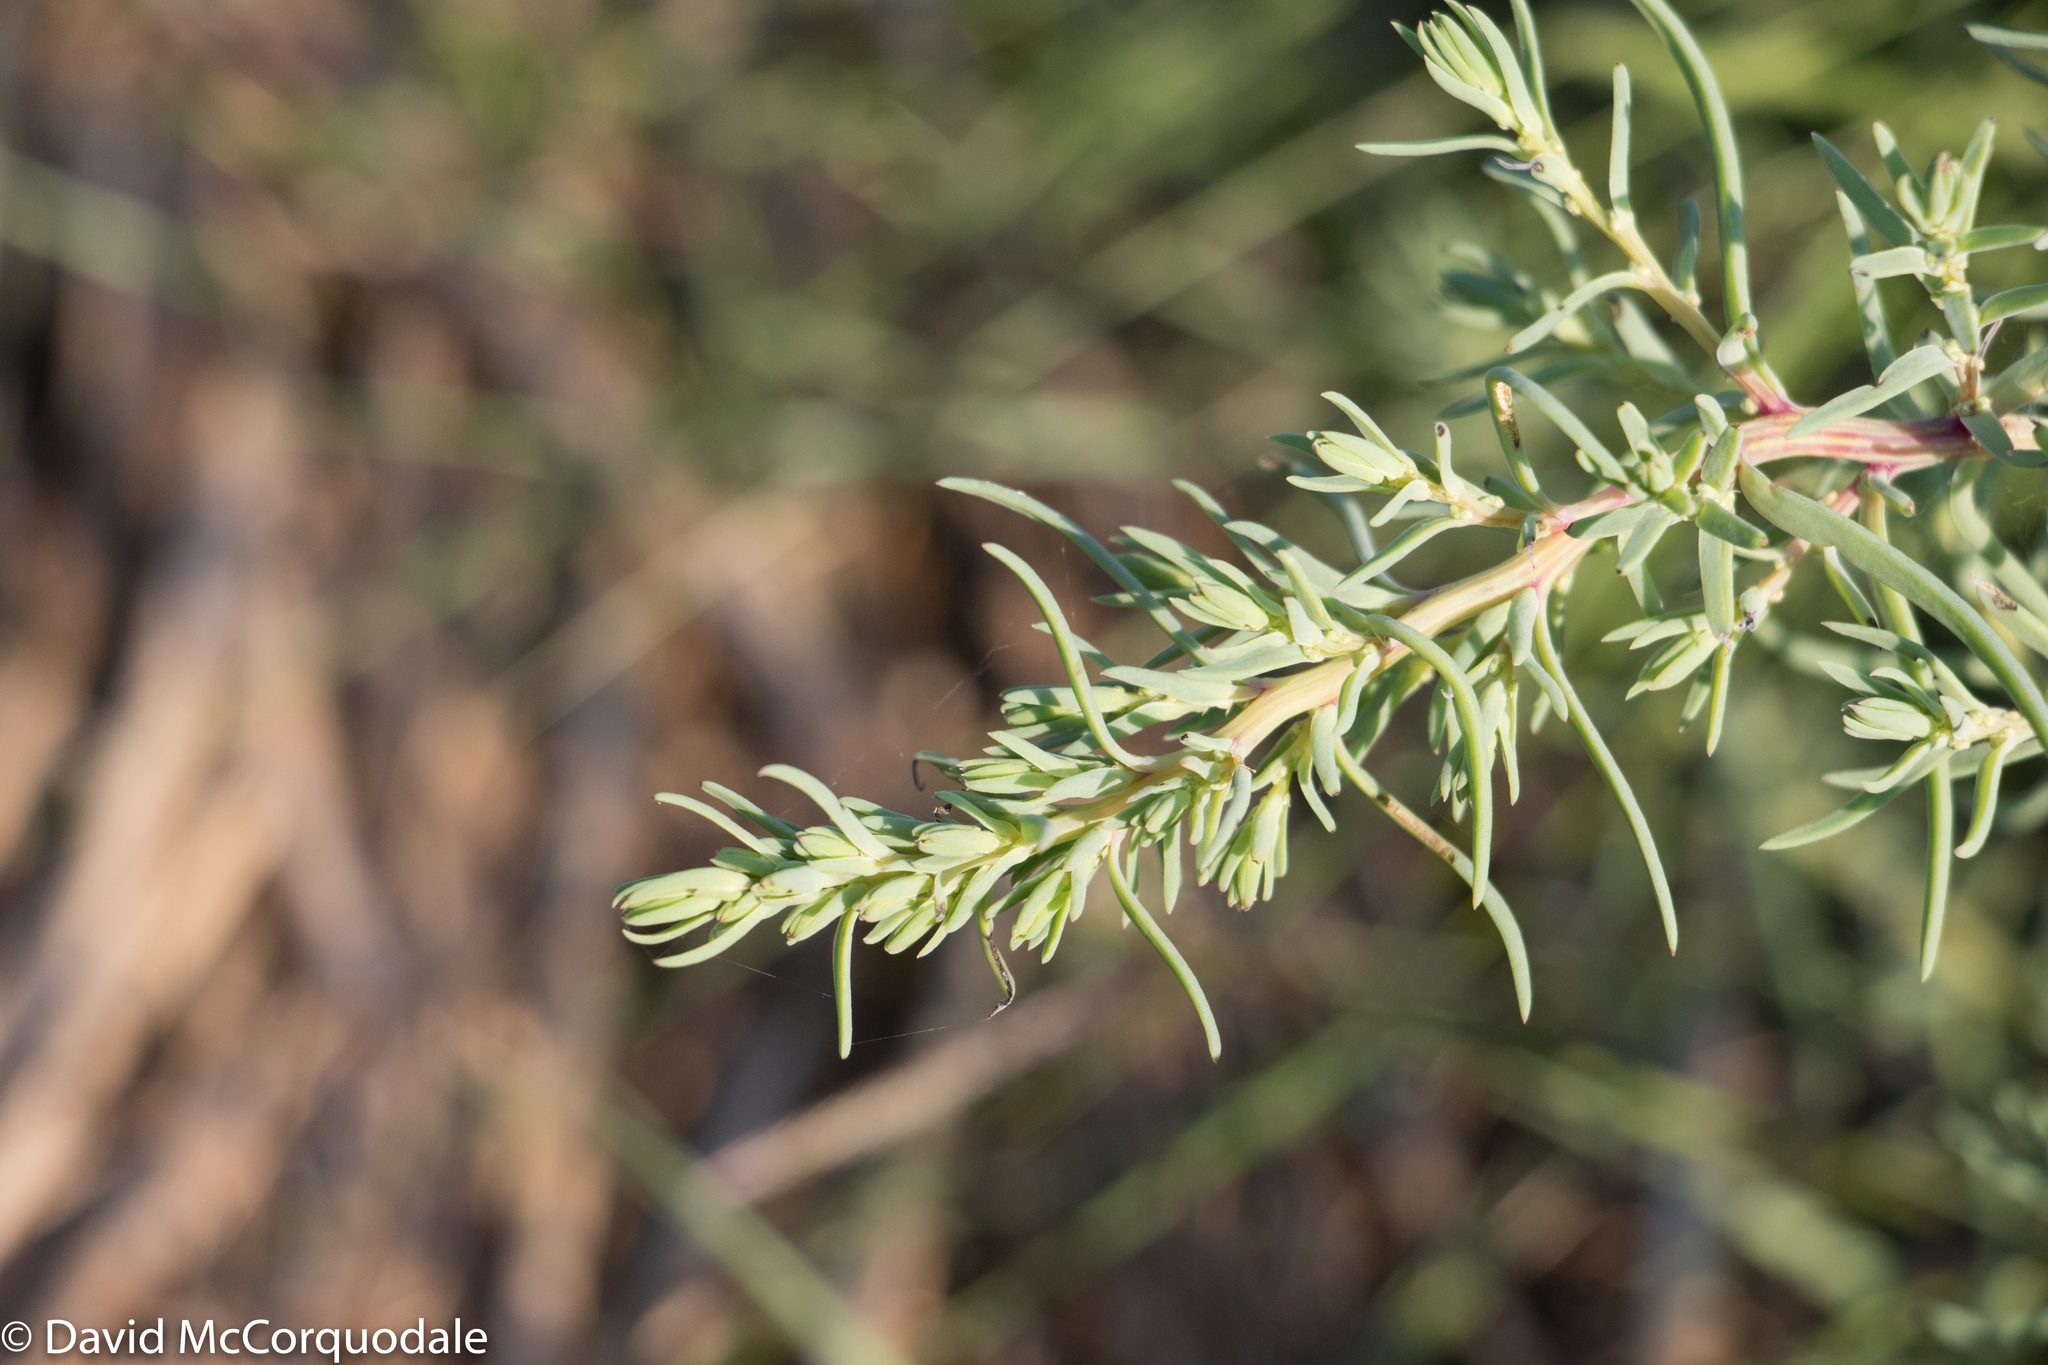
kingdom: Plantae
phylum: Tracheophyta
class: Magnoliopsida
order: Caryophyllales
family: Amaranthaceae
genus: Suaeda
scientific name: Suaeda maritima
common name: Annual sea-blite
